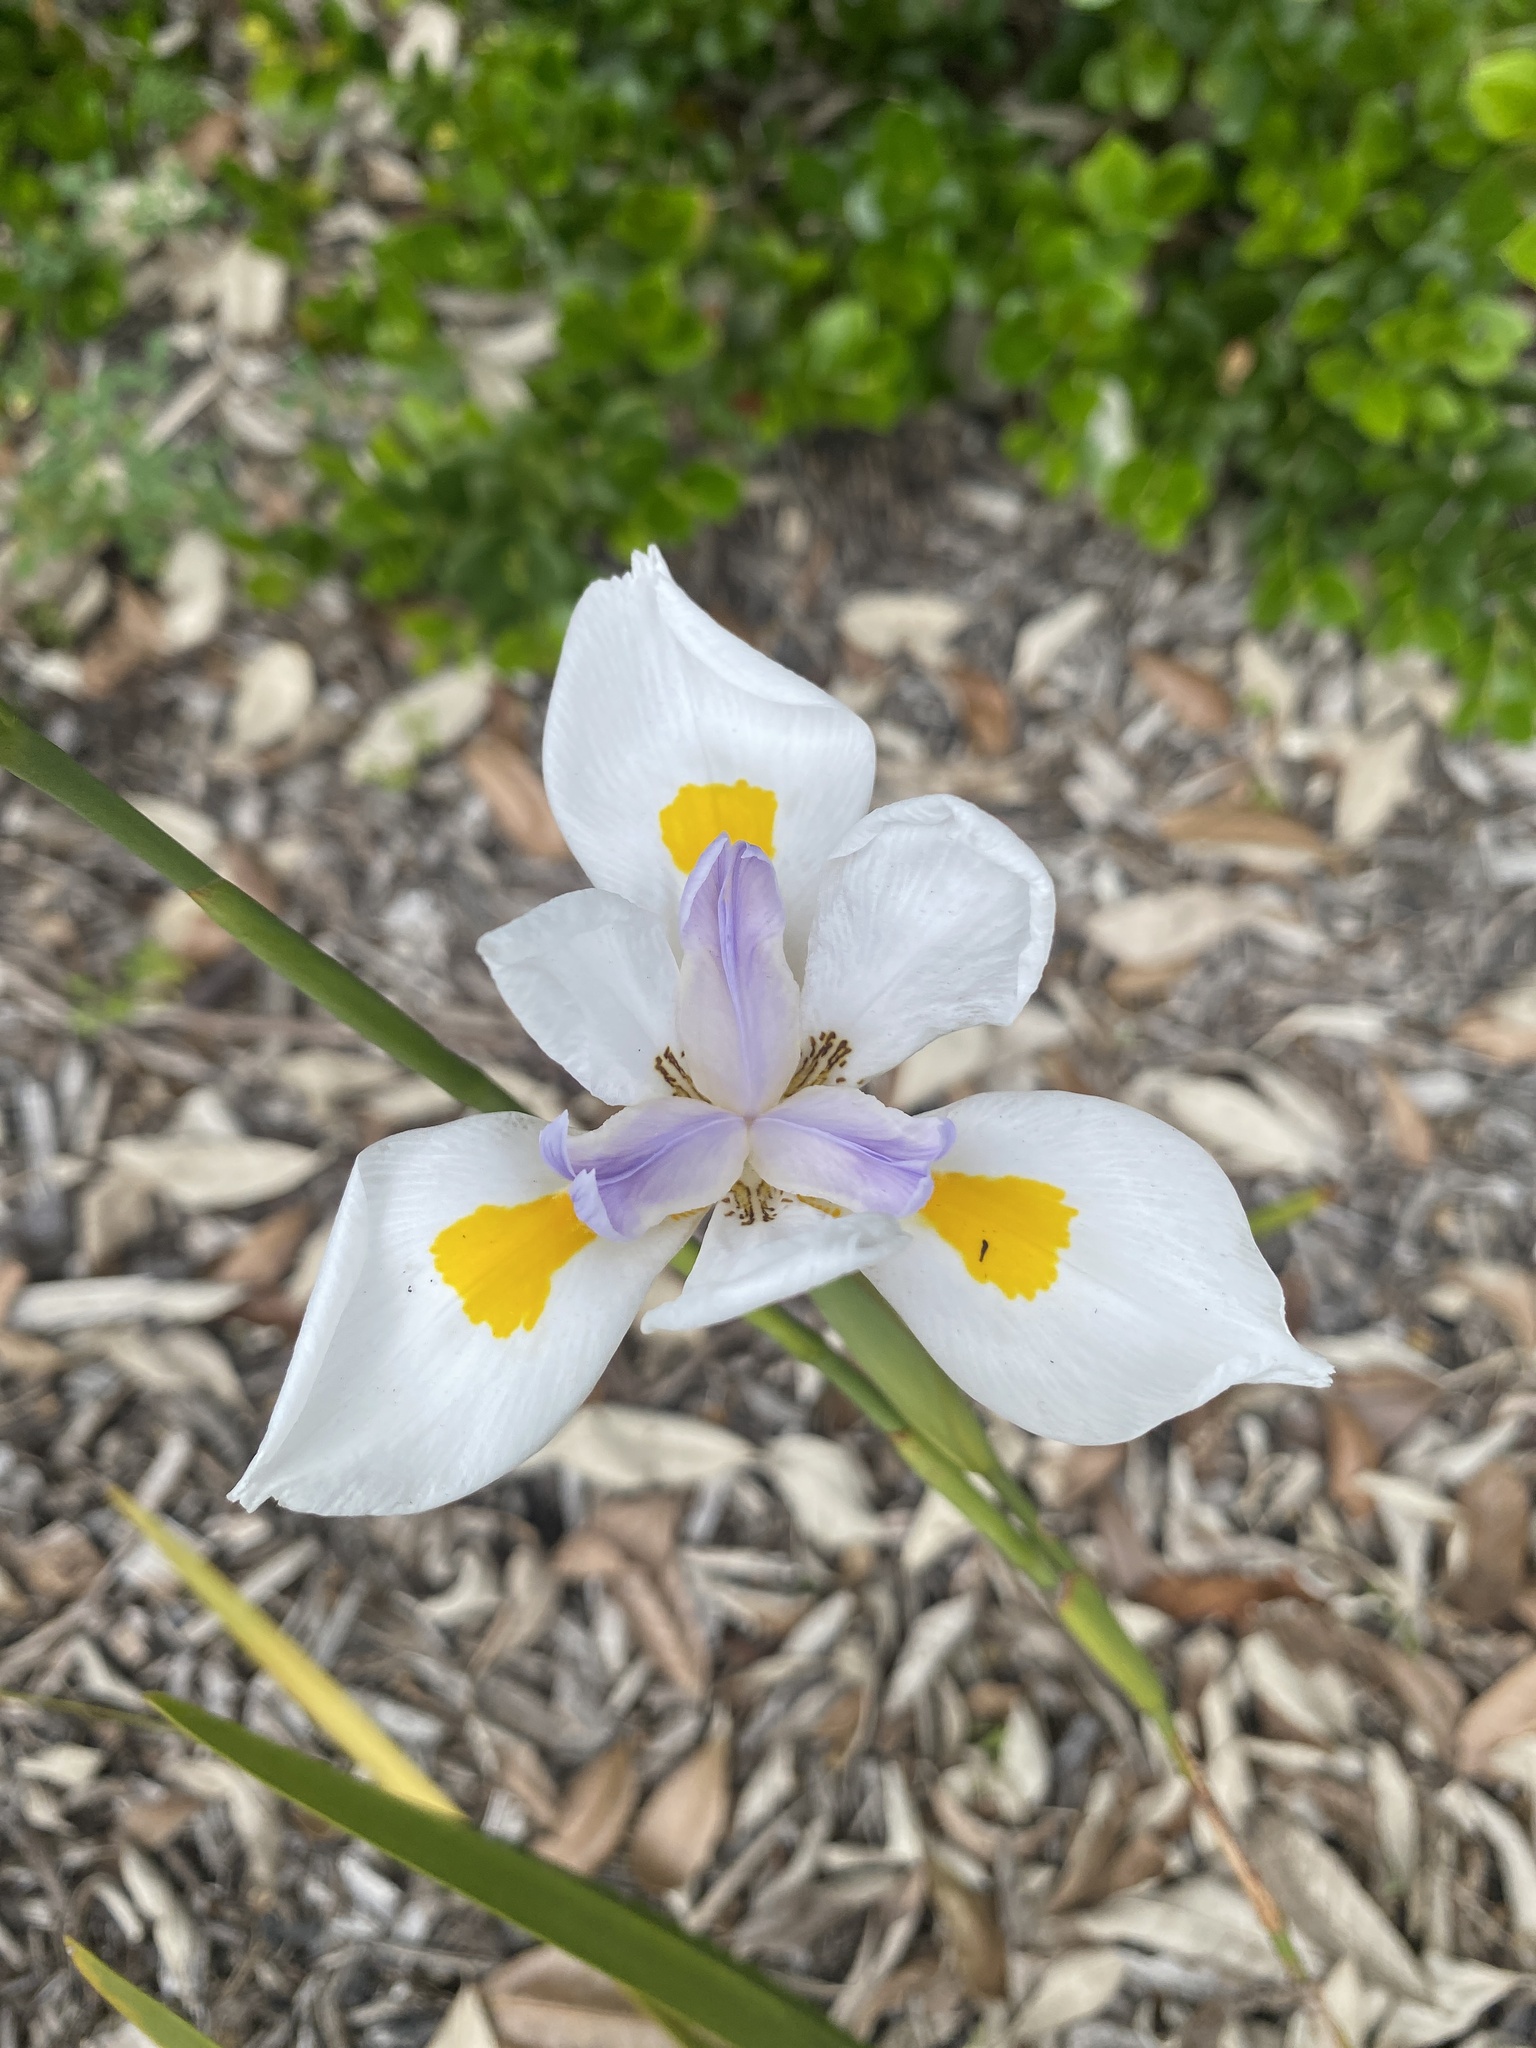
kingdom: Plantae
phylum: Tracheophyta
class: Liliopsida
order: Asparagales
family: Iridaceae
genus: Dietes
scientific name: Dietes grandiflora
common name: Wild iris
